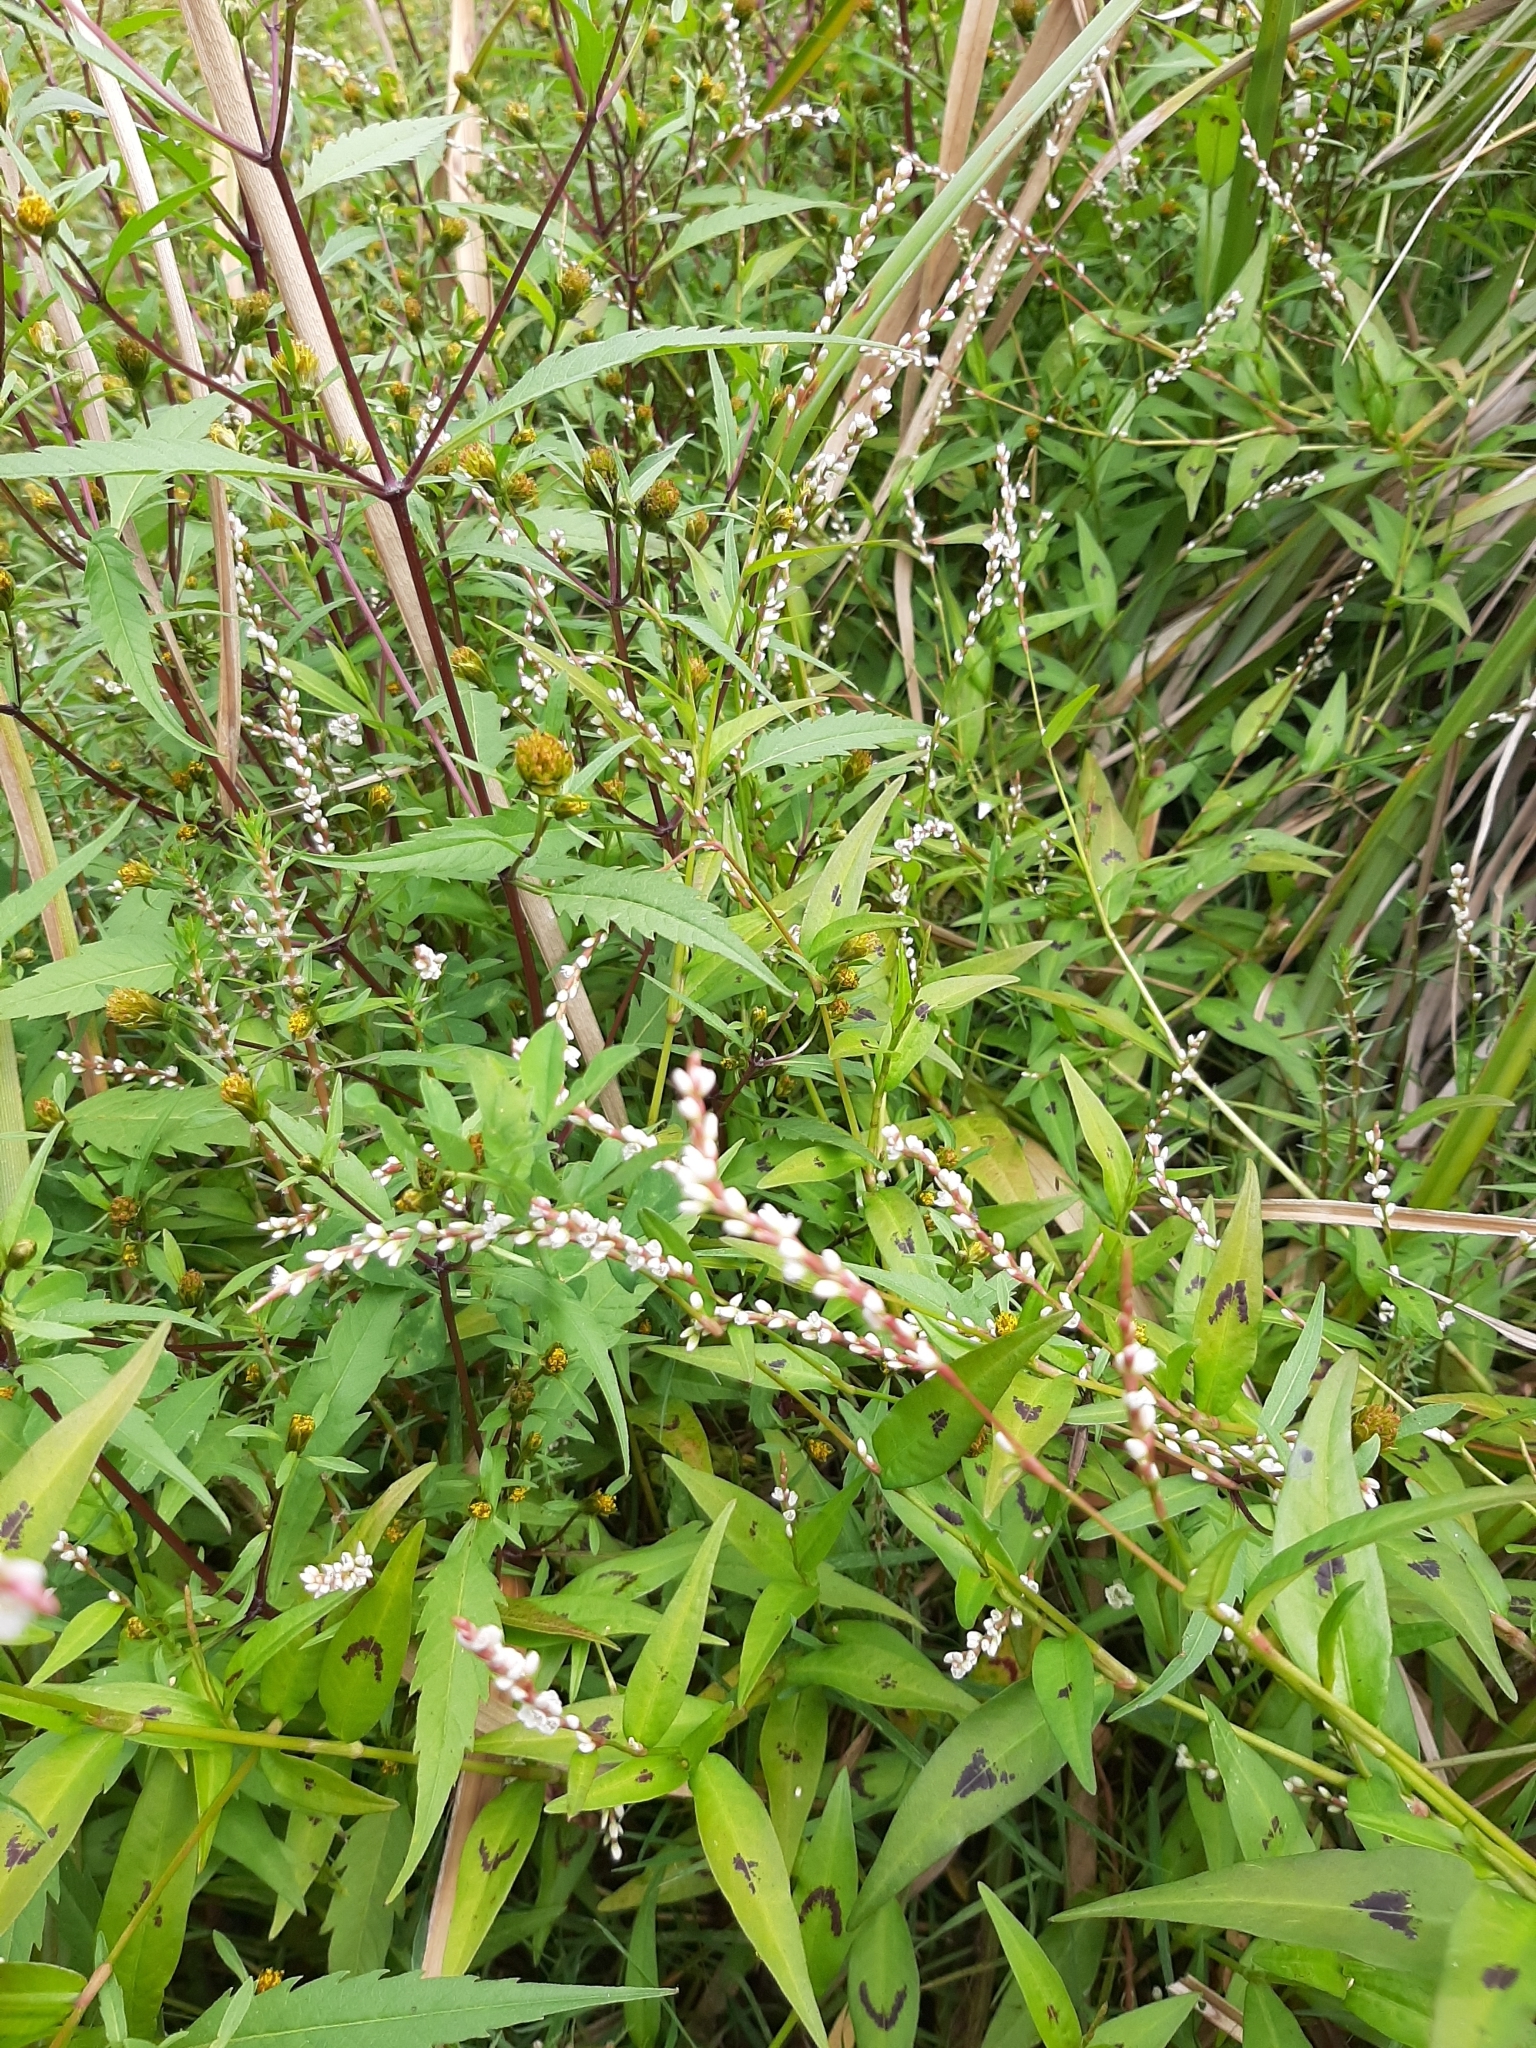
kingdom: Plantae
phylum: Tracheophyta
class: Magnoliopsida
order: Caryophyllales
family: Polygonaceae
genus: Persicaria
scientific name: Persicaria decipiens
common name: Willow-weed
